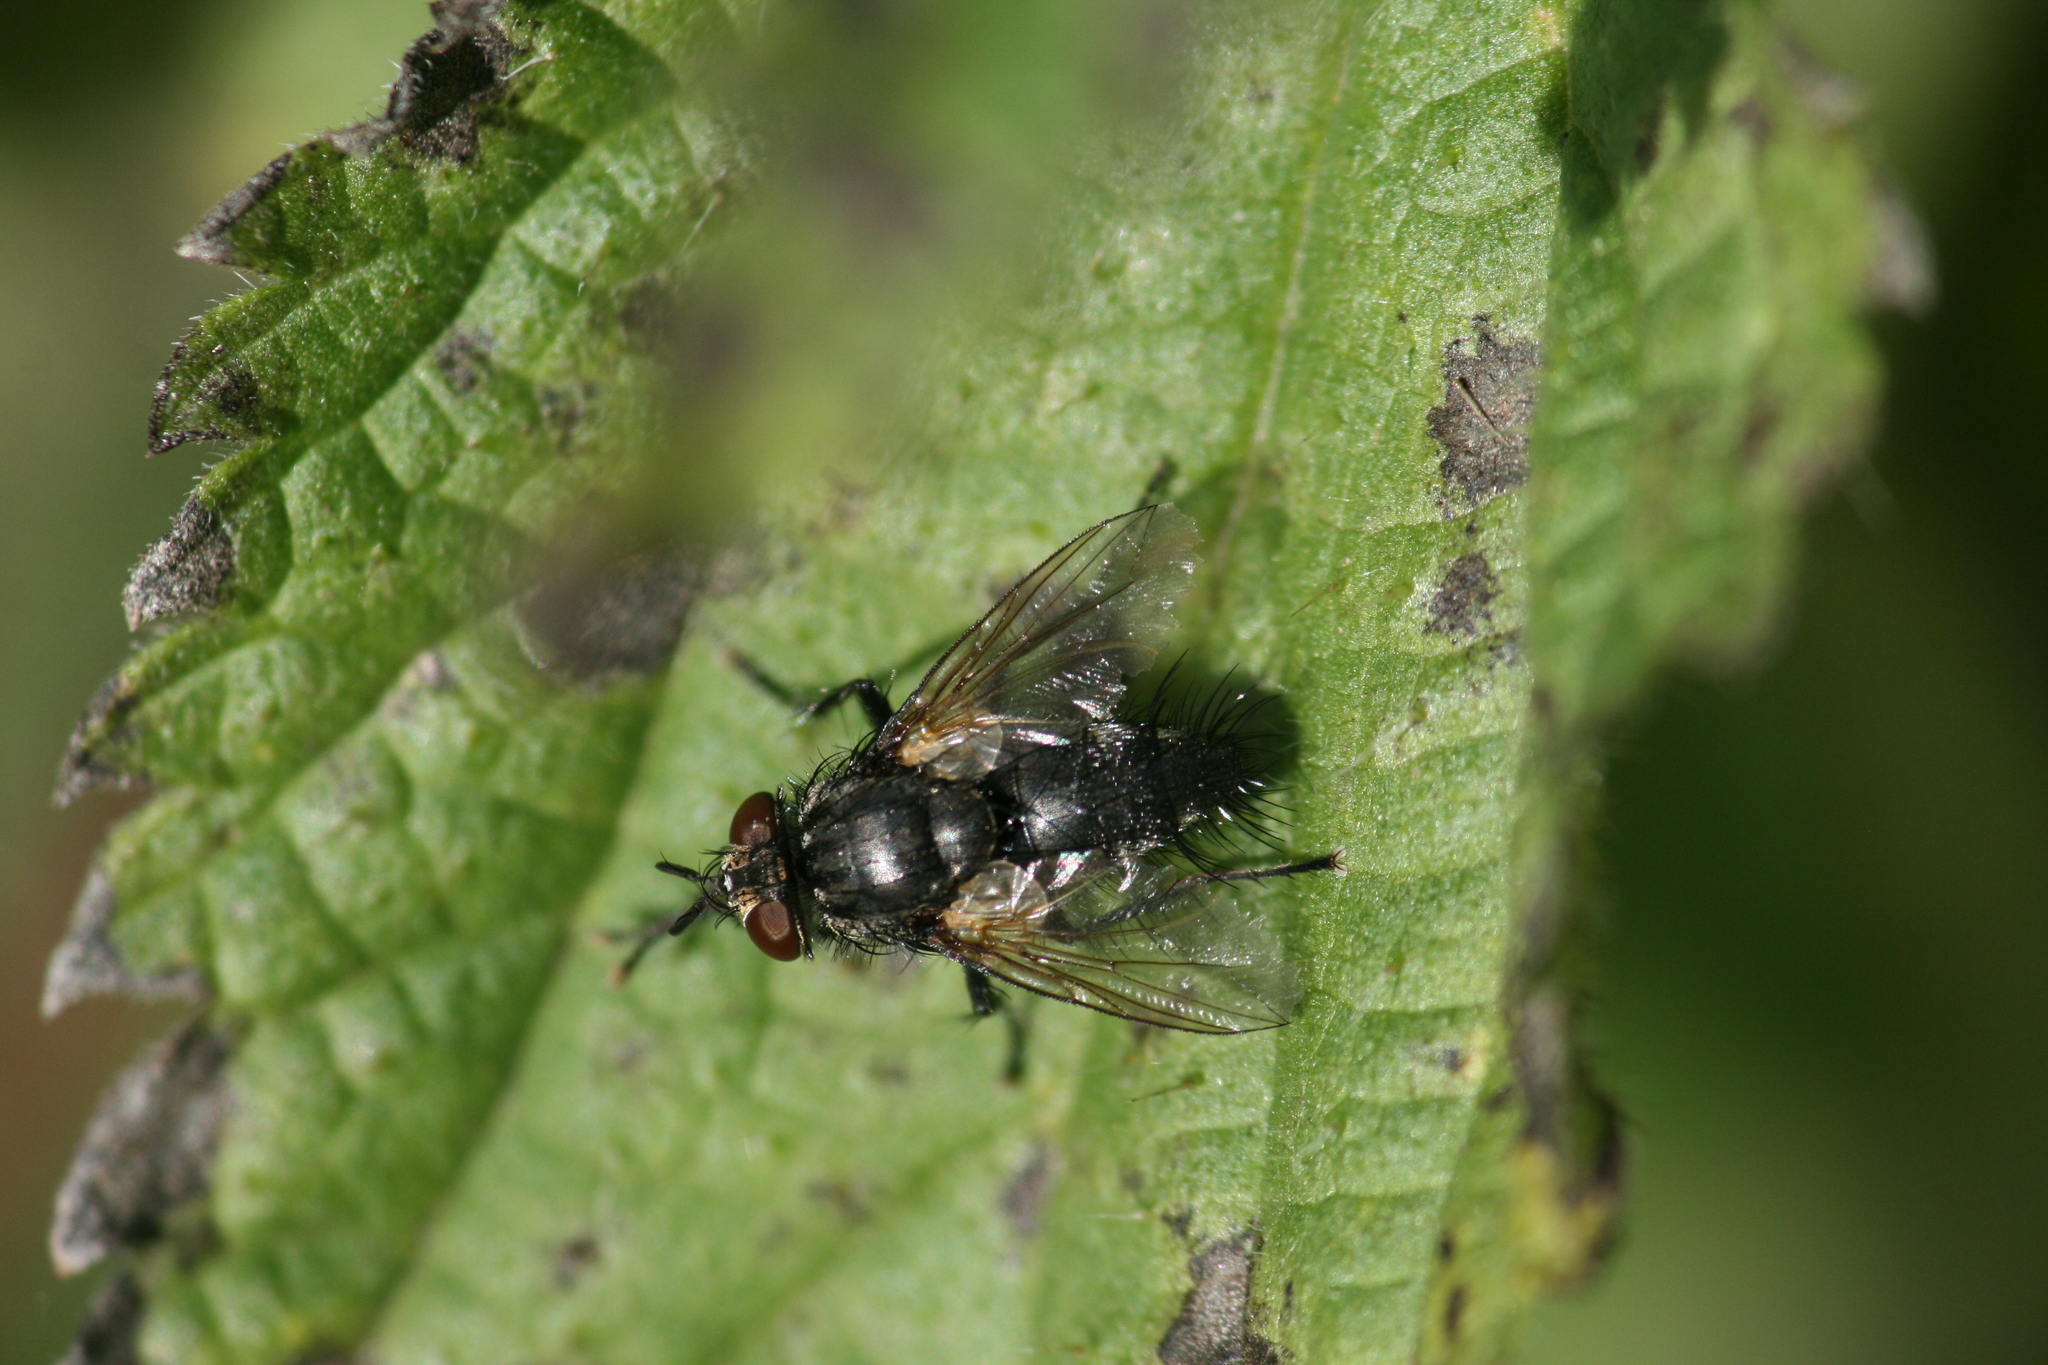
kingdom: Animalia
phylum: Arthropoda
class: Insecta
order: Diptera
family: Tachinidae
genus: Voria
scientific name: Voria ruralis
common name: Parasitic fly
